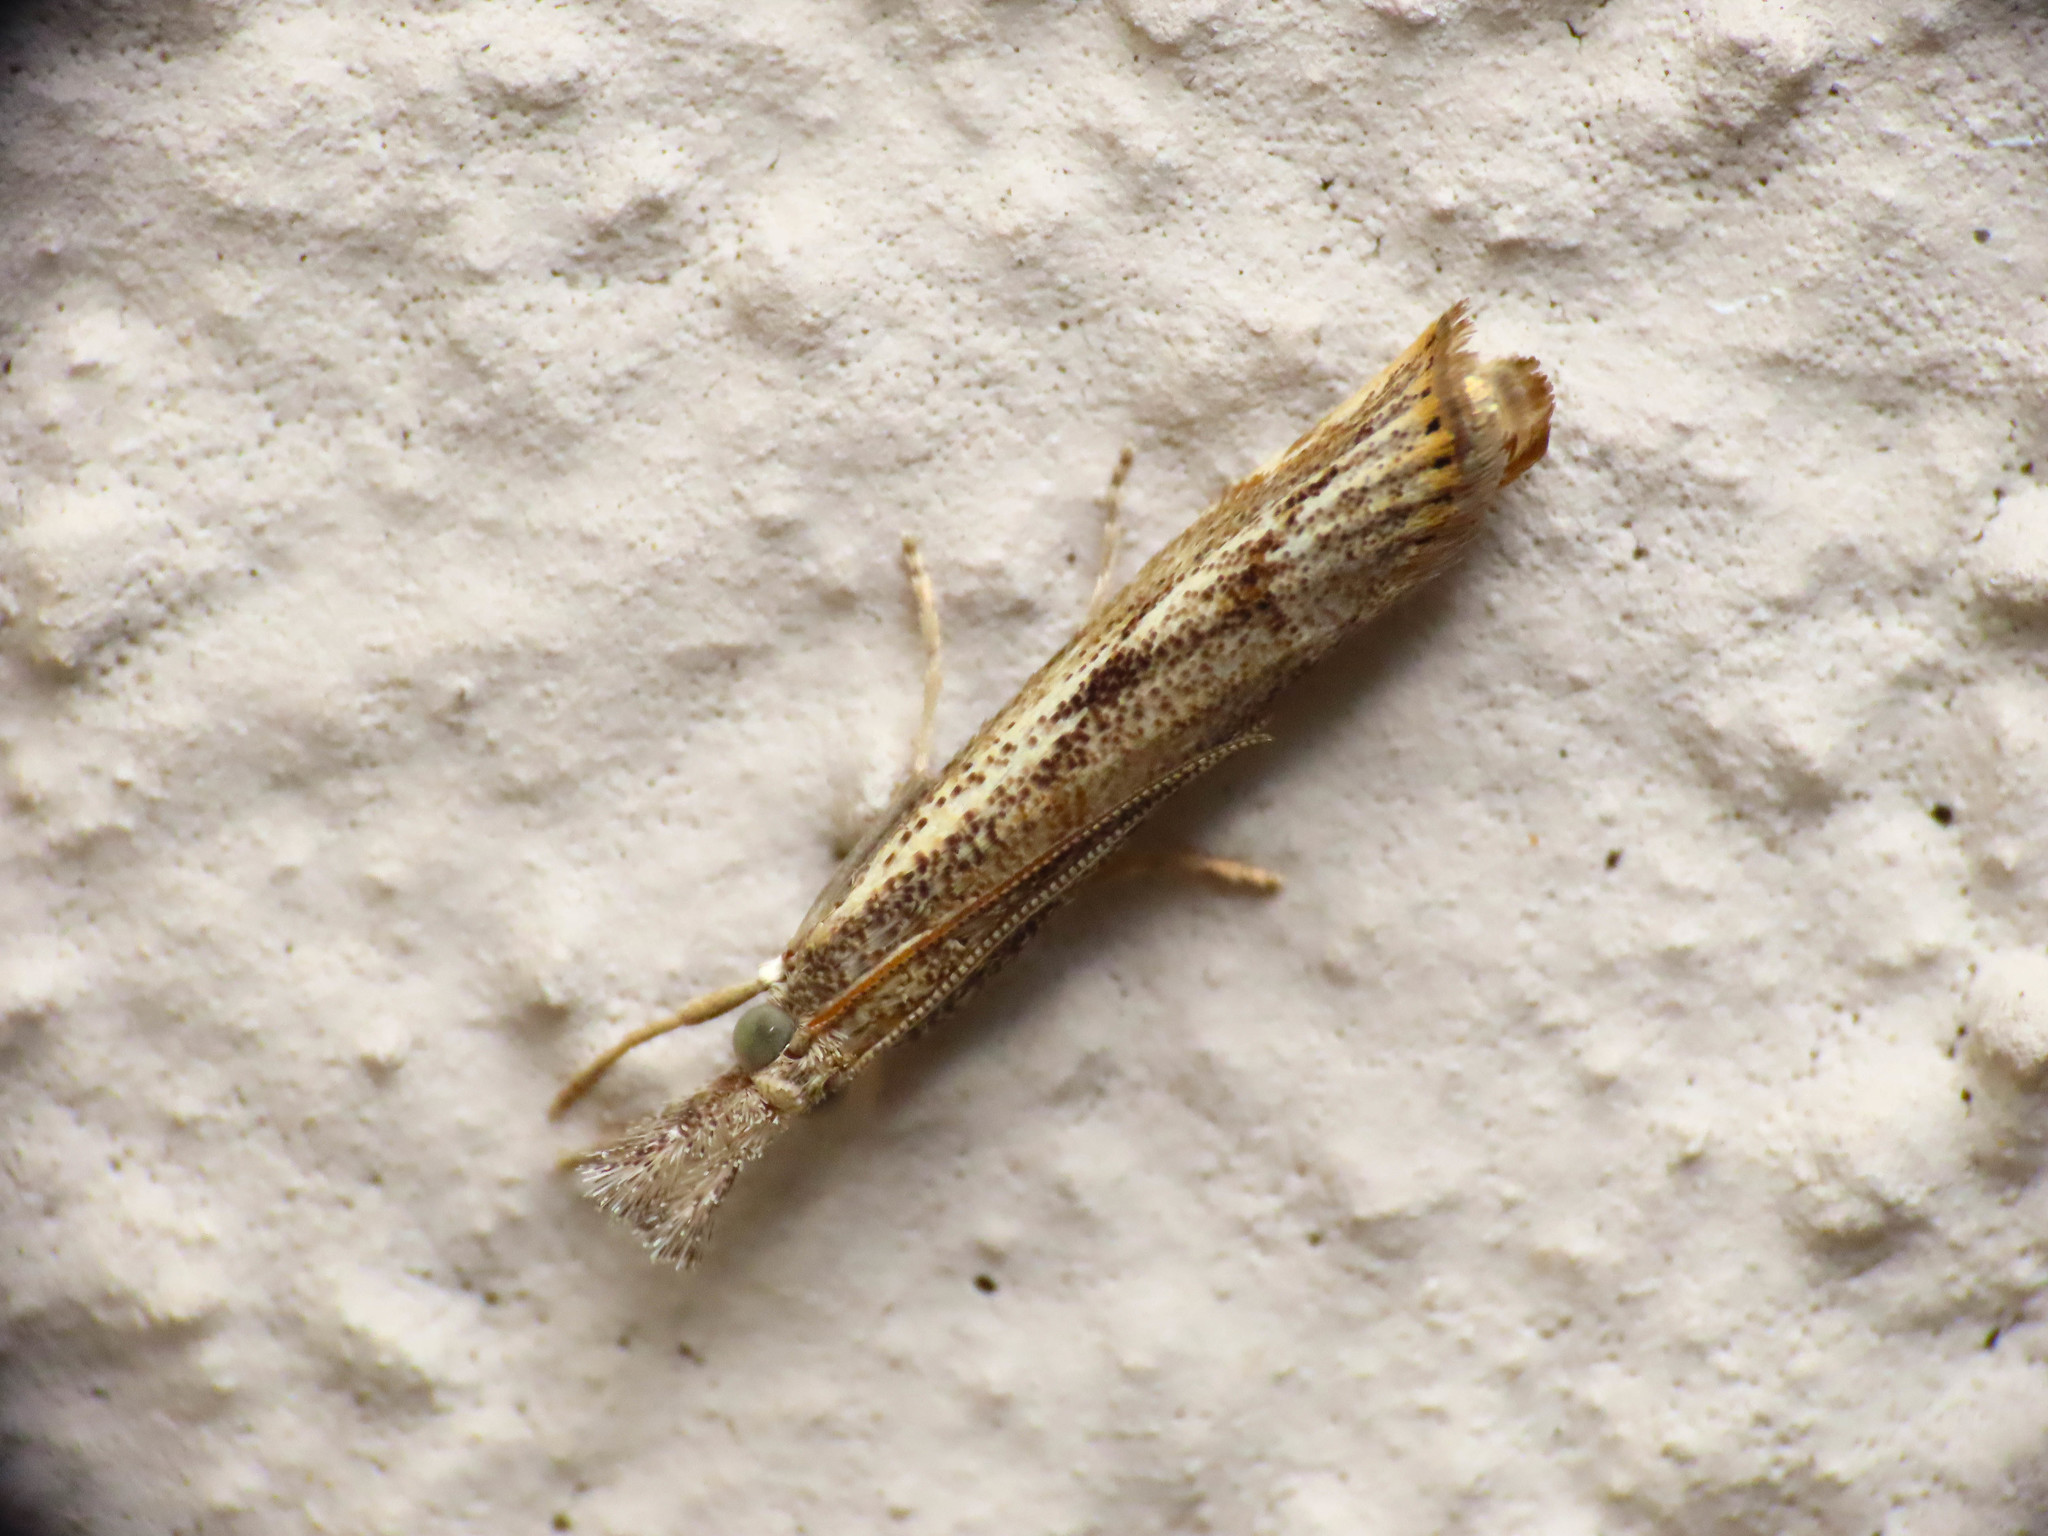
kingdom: Animalia
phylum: Arthropoda
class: Insecta
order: Lepidoptera
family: Crambidae
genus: Agriphila
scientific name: Agriphila tolli
